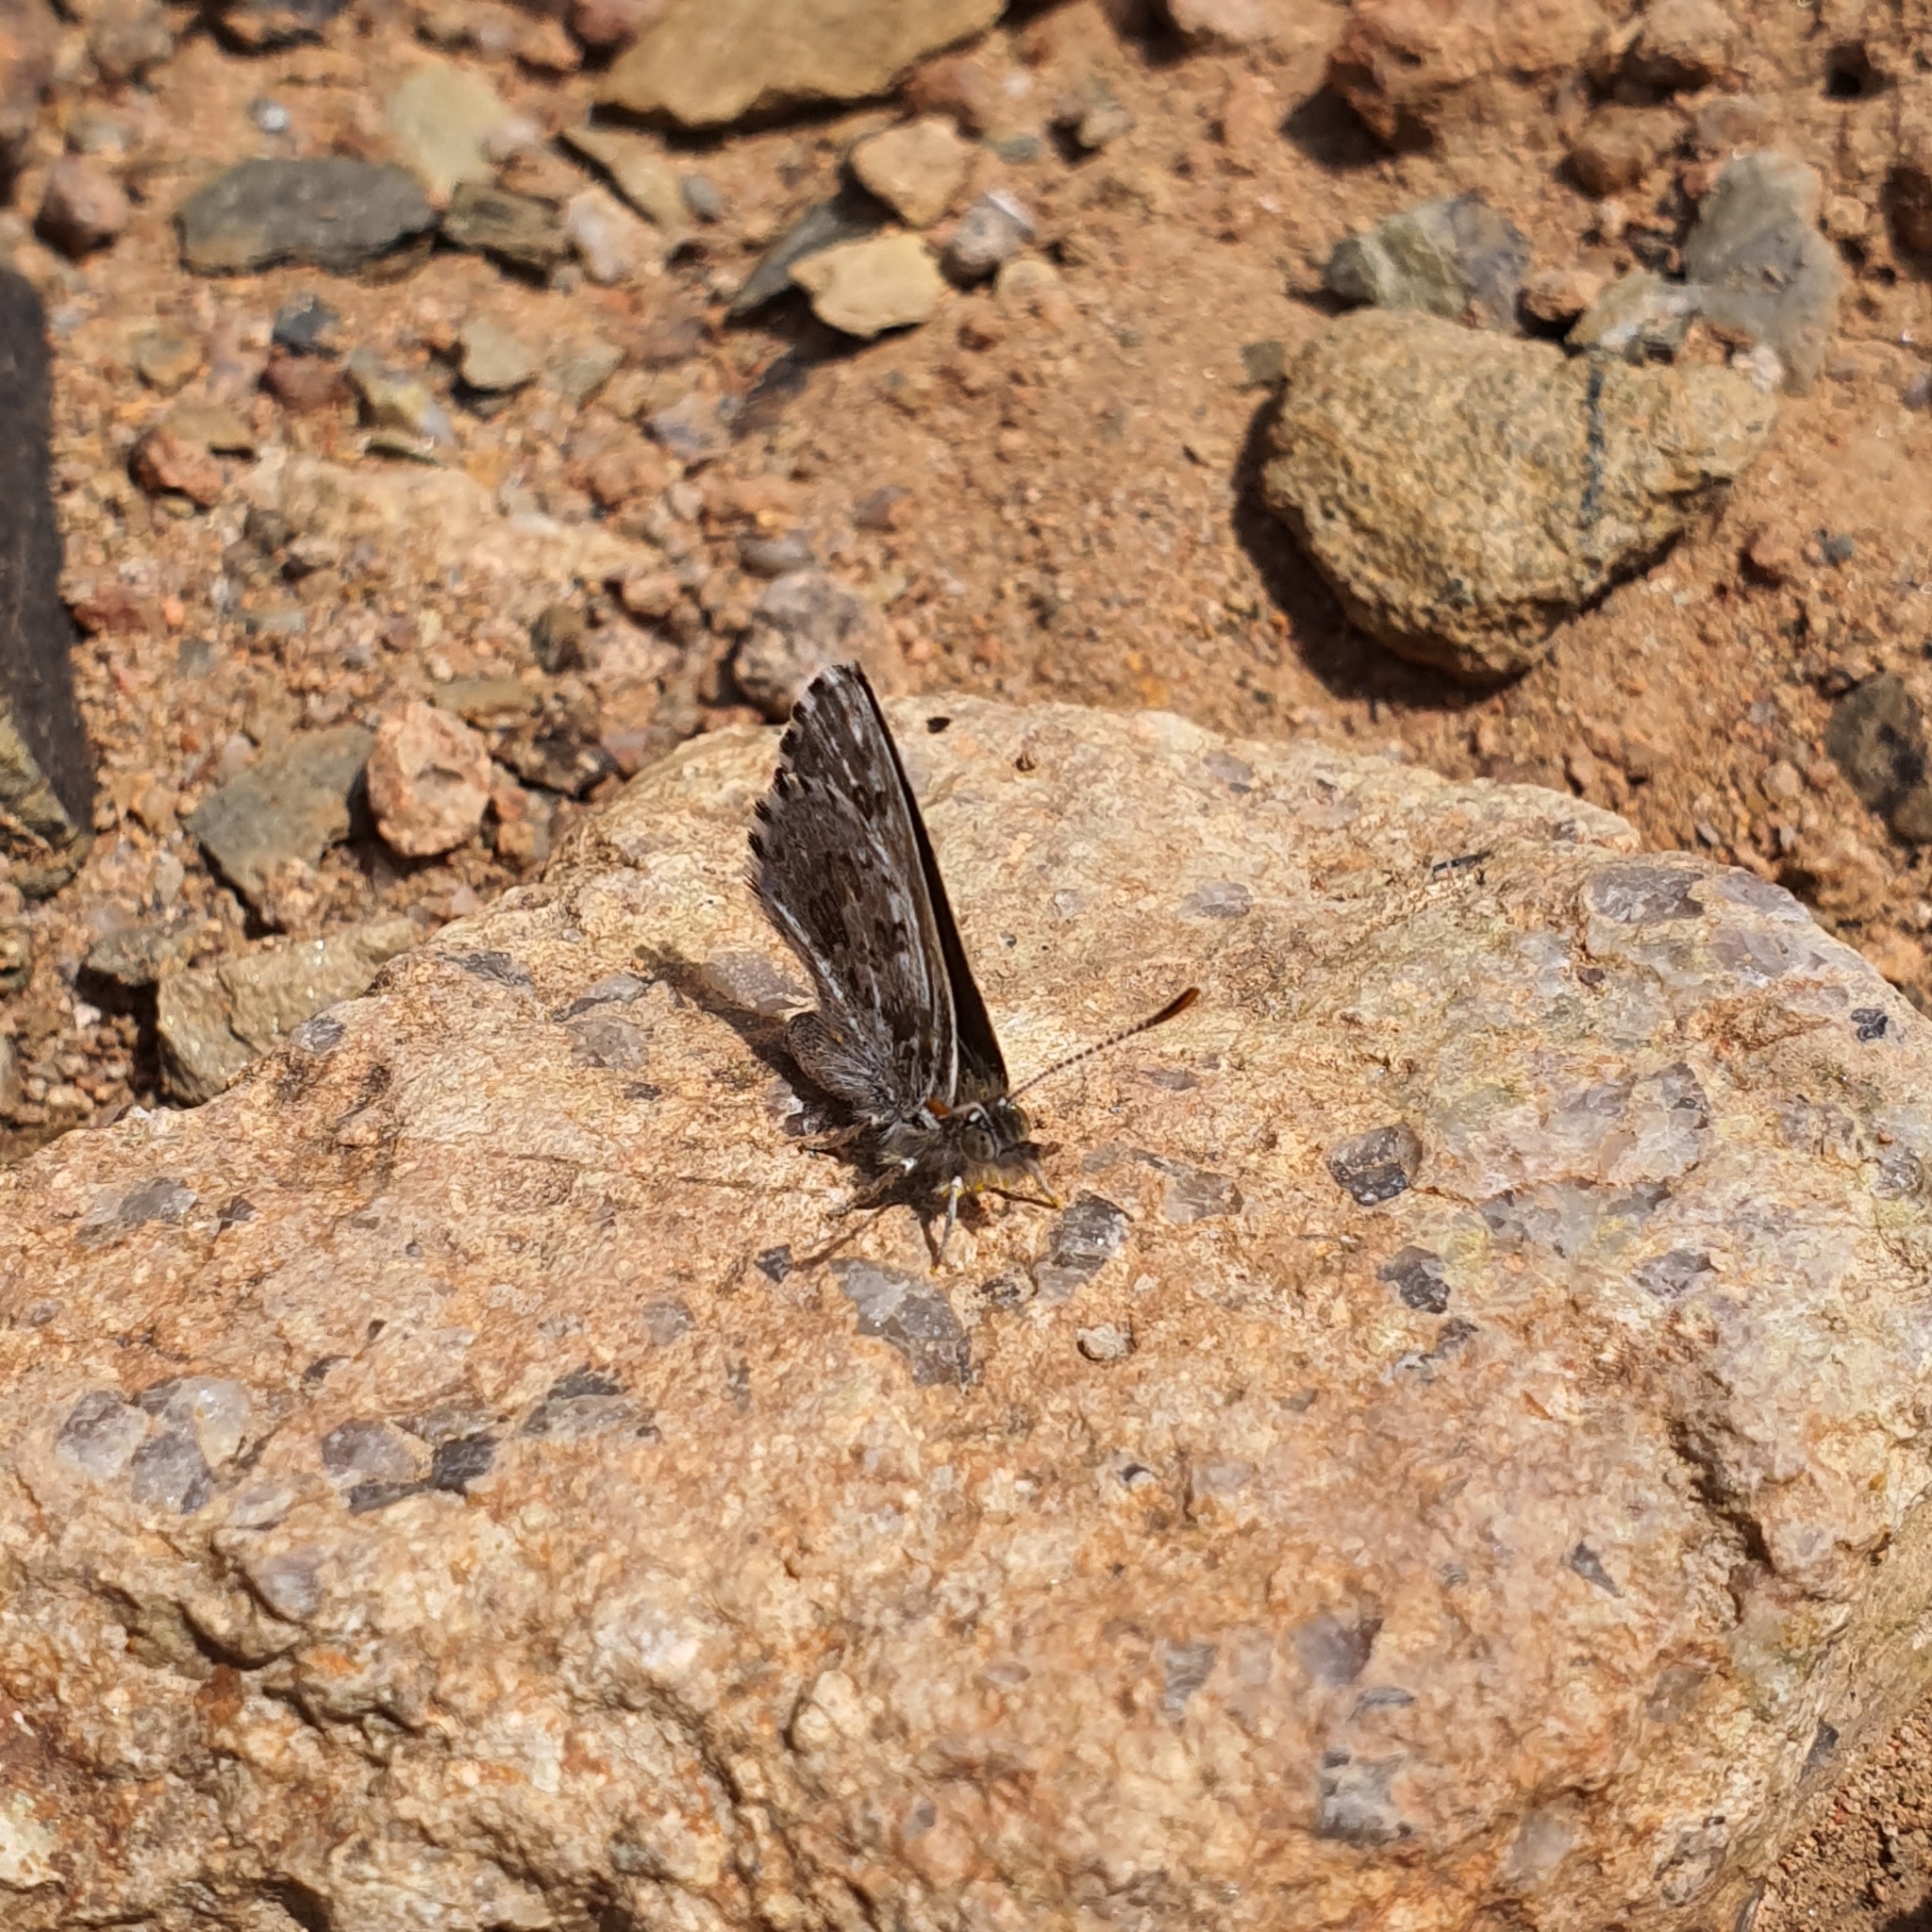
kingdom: Animalia
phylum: Arthropoda
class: Insecta
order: Lepidoptera
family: Lycaenidae
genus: Lucia
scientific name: Lucia limbaria
